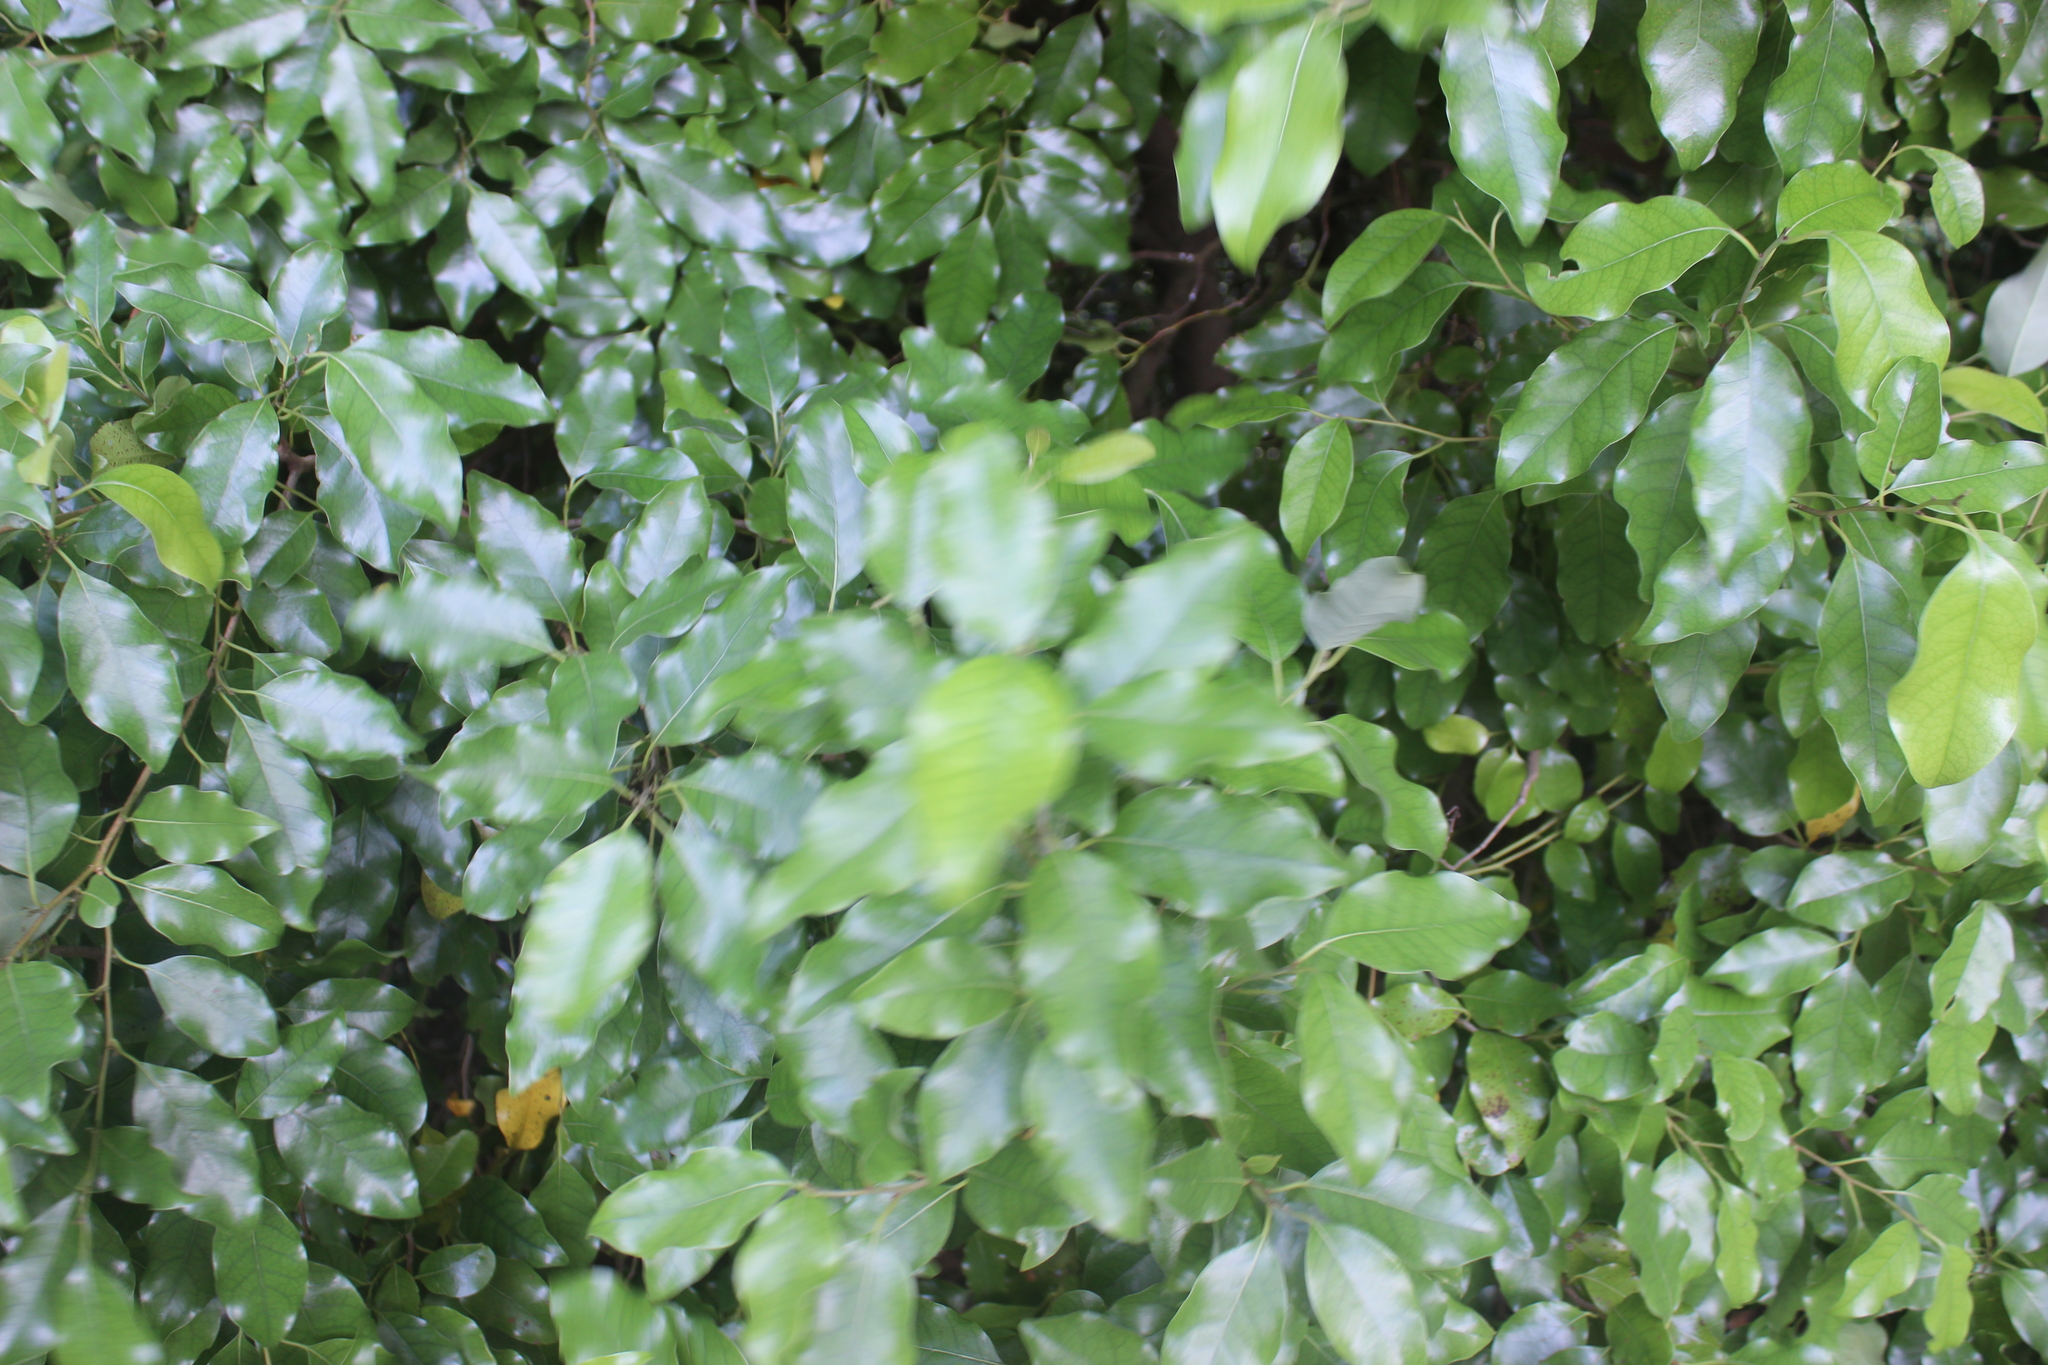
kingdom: Plantae
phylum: Tracheophyta
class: Magnoliopsida
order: Laurales
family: Lauraceae
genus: Litsea
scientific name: Litsea calicaris
